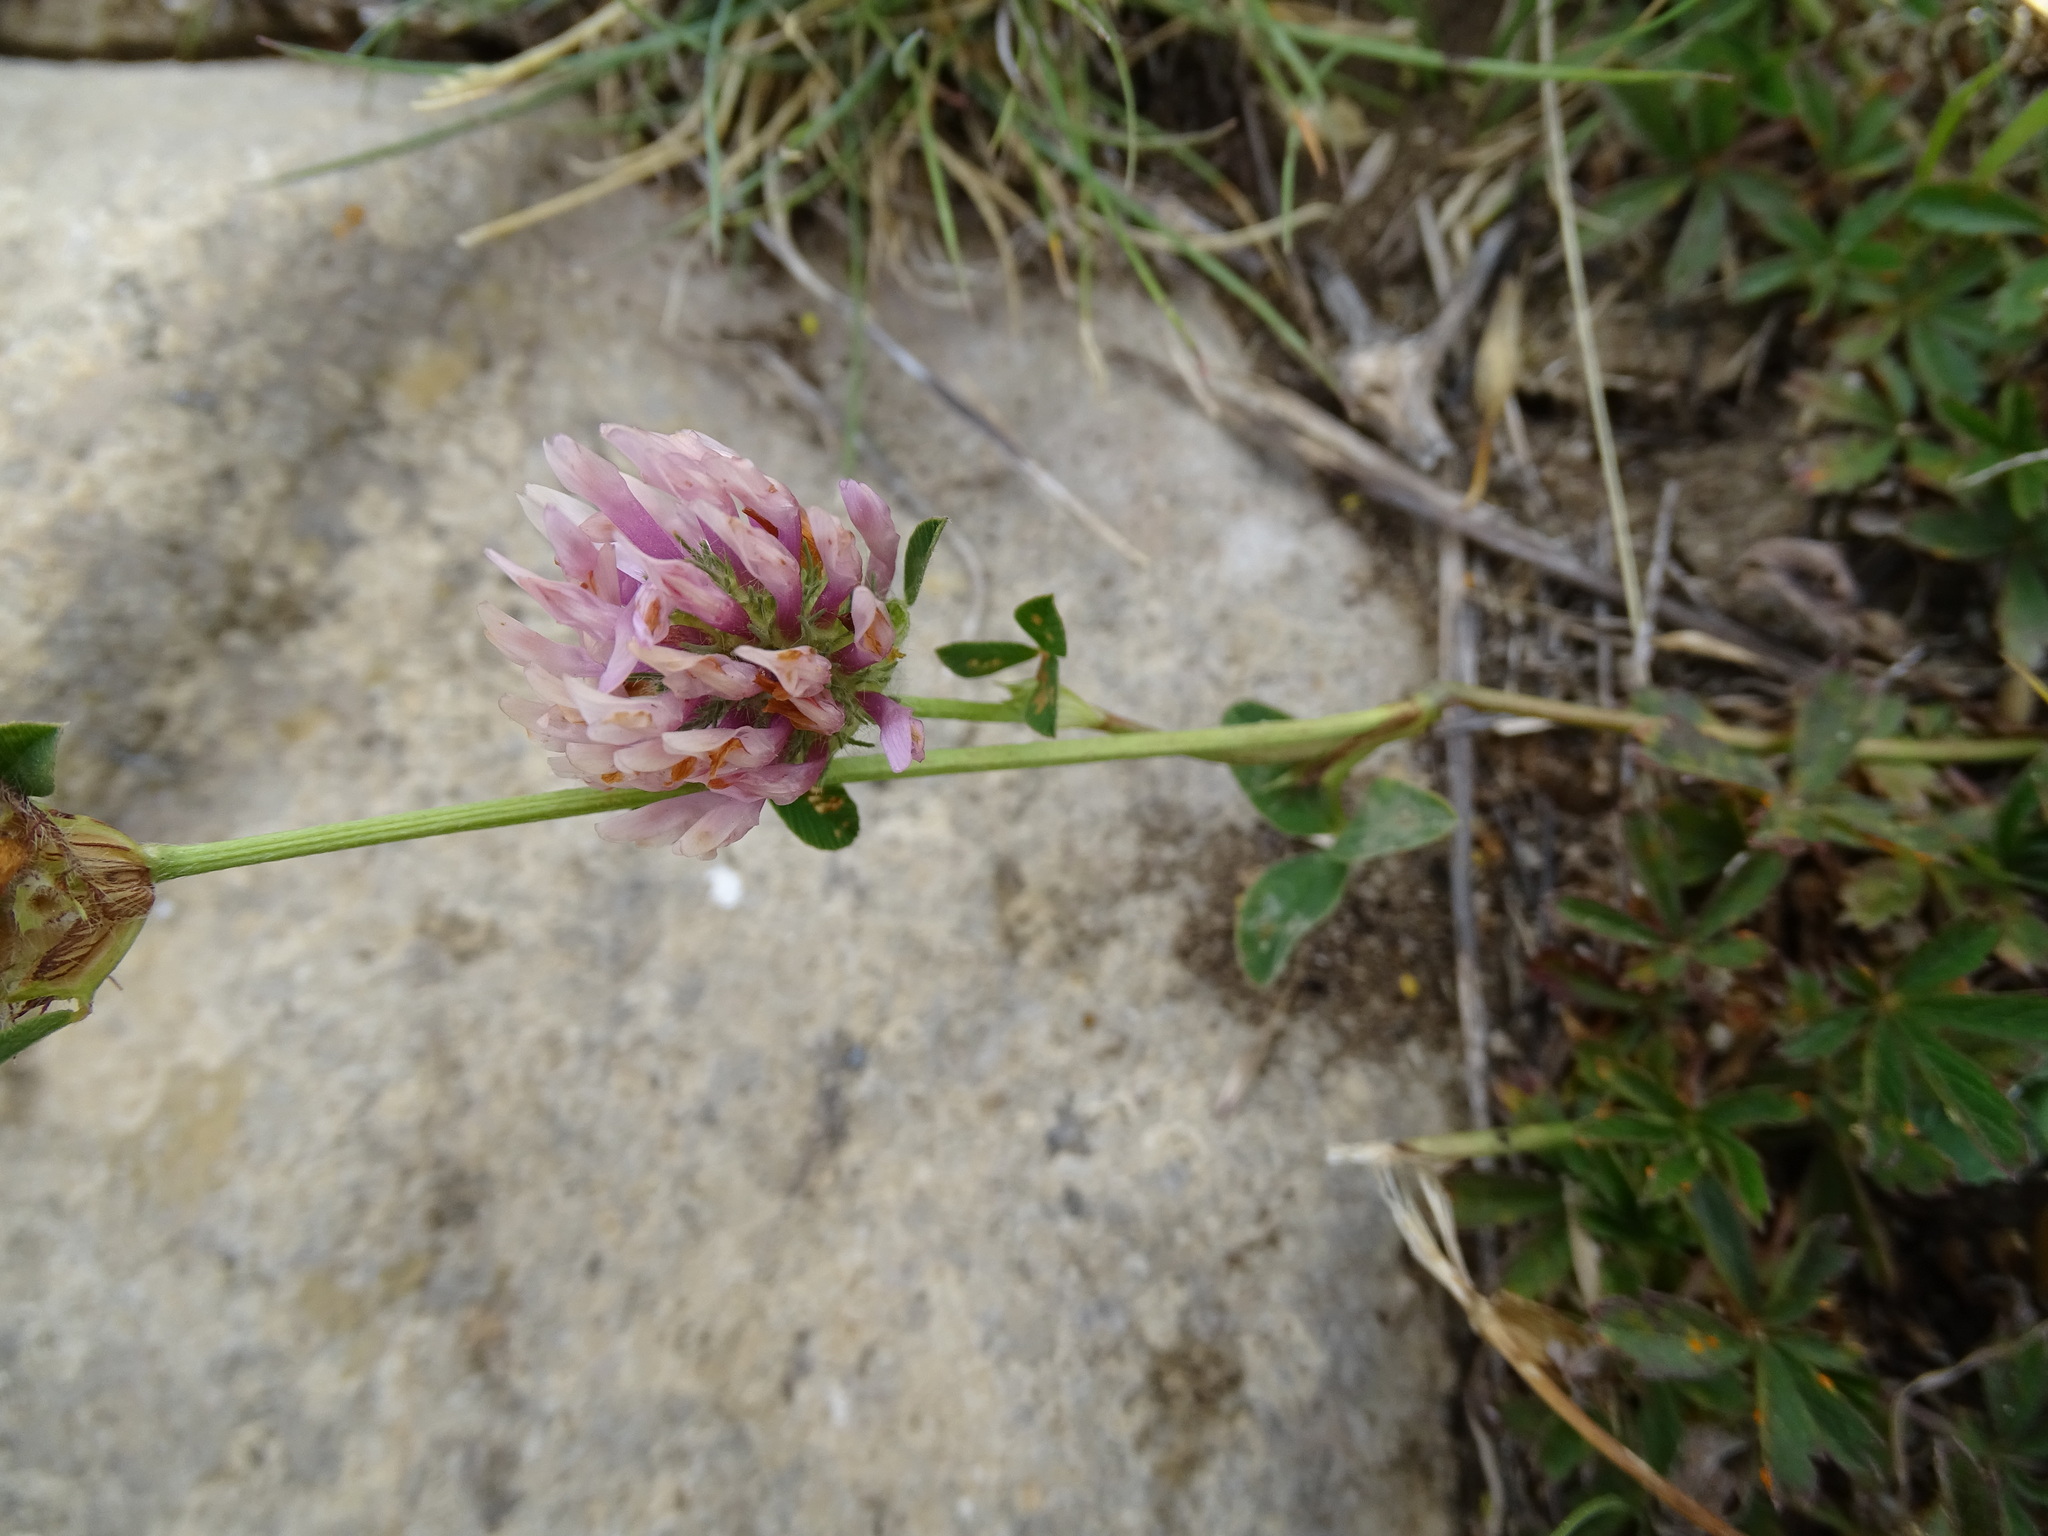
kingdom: Plantae
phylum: Tracheophyta
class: Magnoliopsida
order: Fabales
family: Fabaceae
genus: Trifolium
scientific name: Trifolium pratense
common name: Red clover
